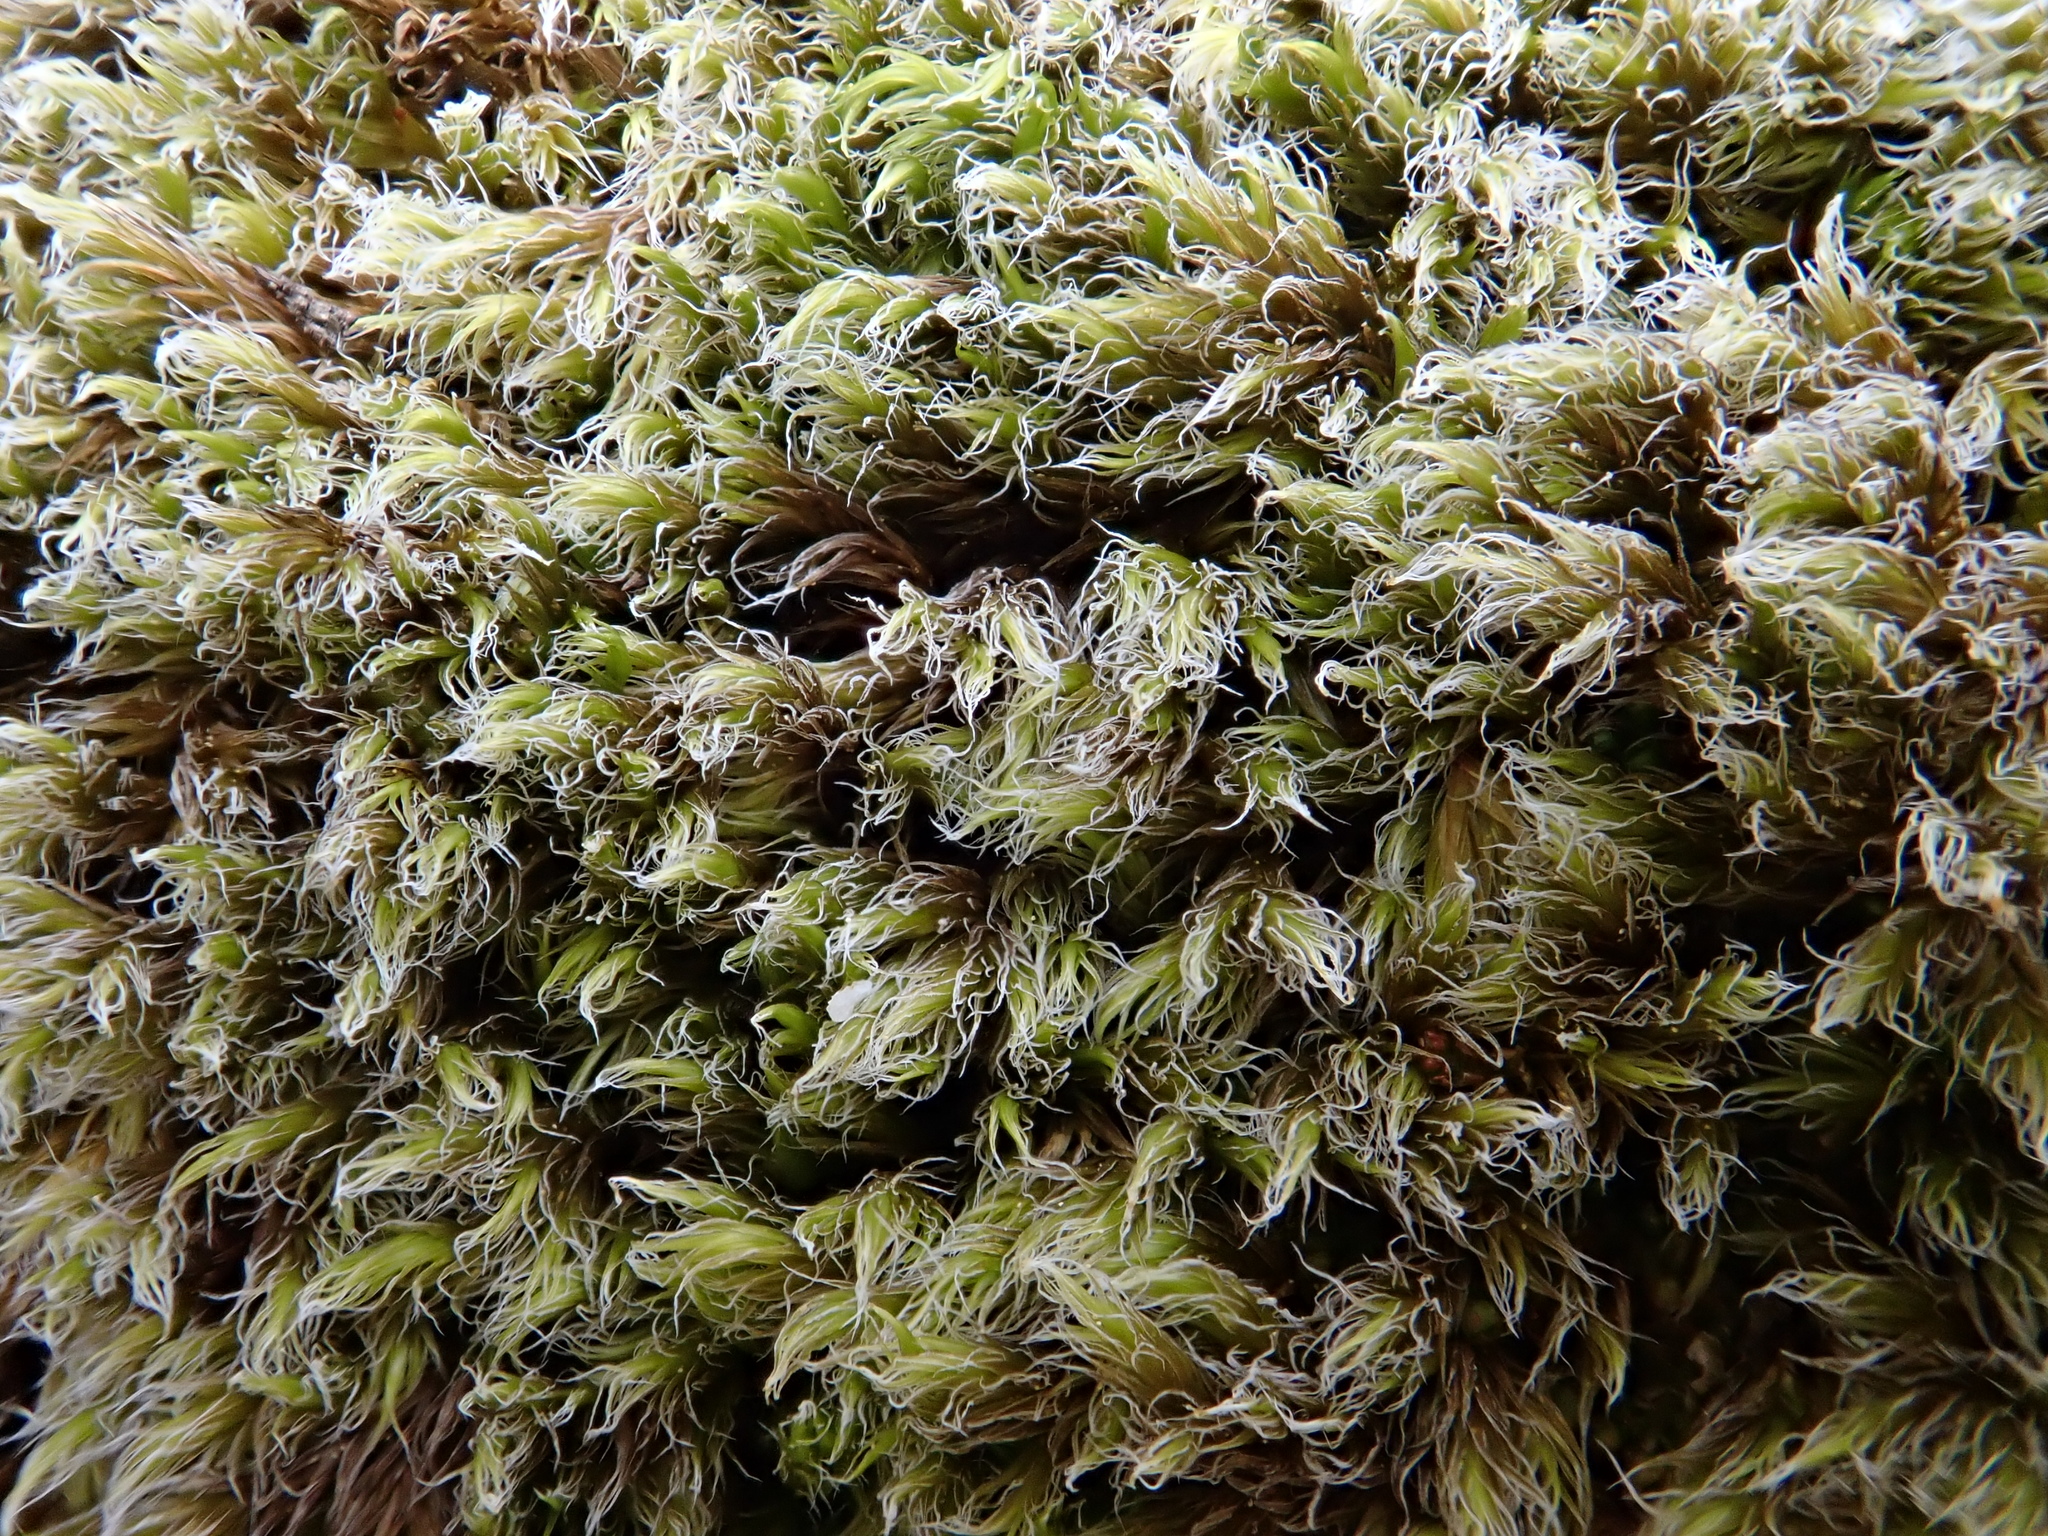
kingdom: Plantae
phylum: Bryophyta
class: Bryopsida
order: Grimmiales
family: Grimmiaceae
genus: Racomitrium
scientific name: Racomitrium lanuginosum
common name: Hoary rock moss
